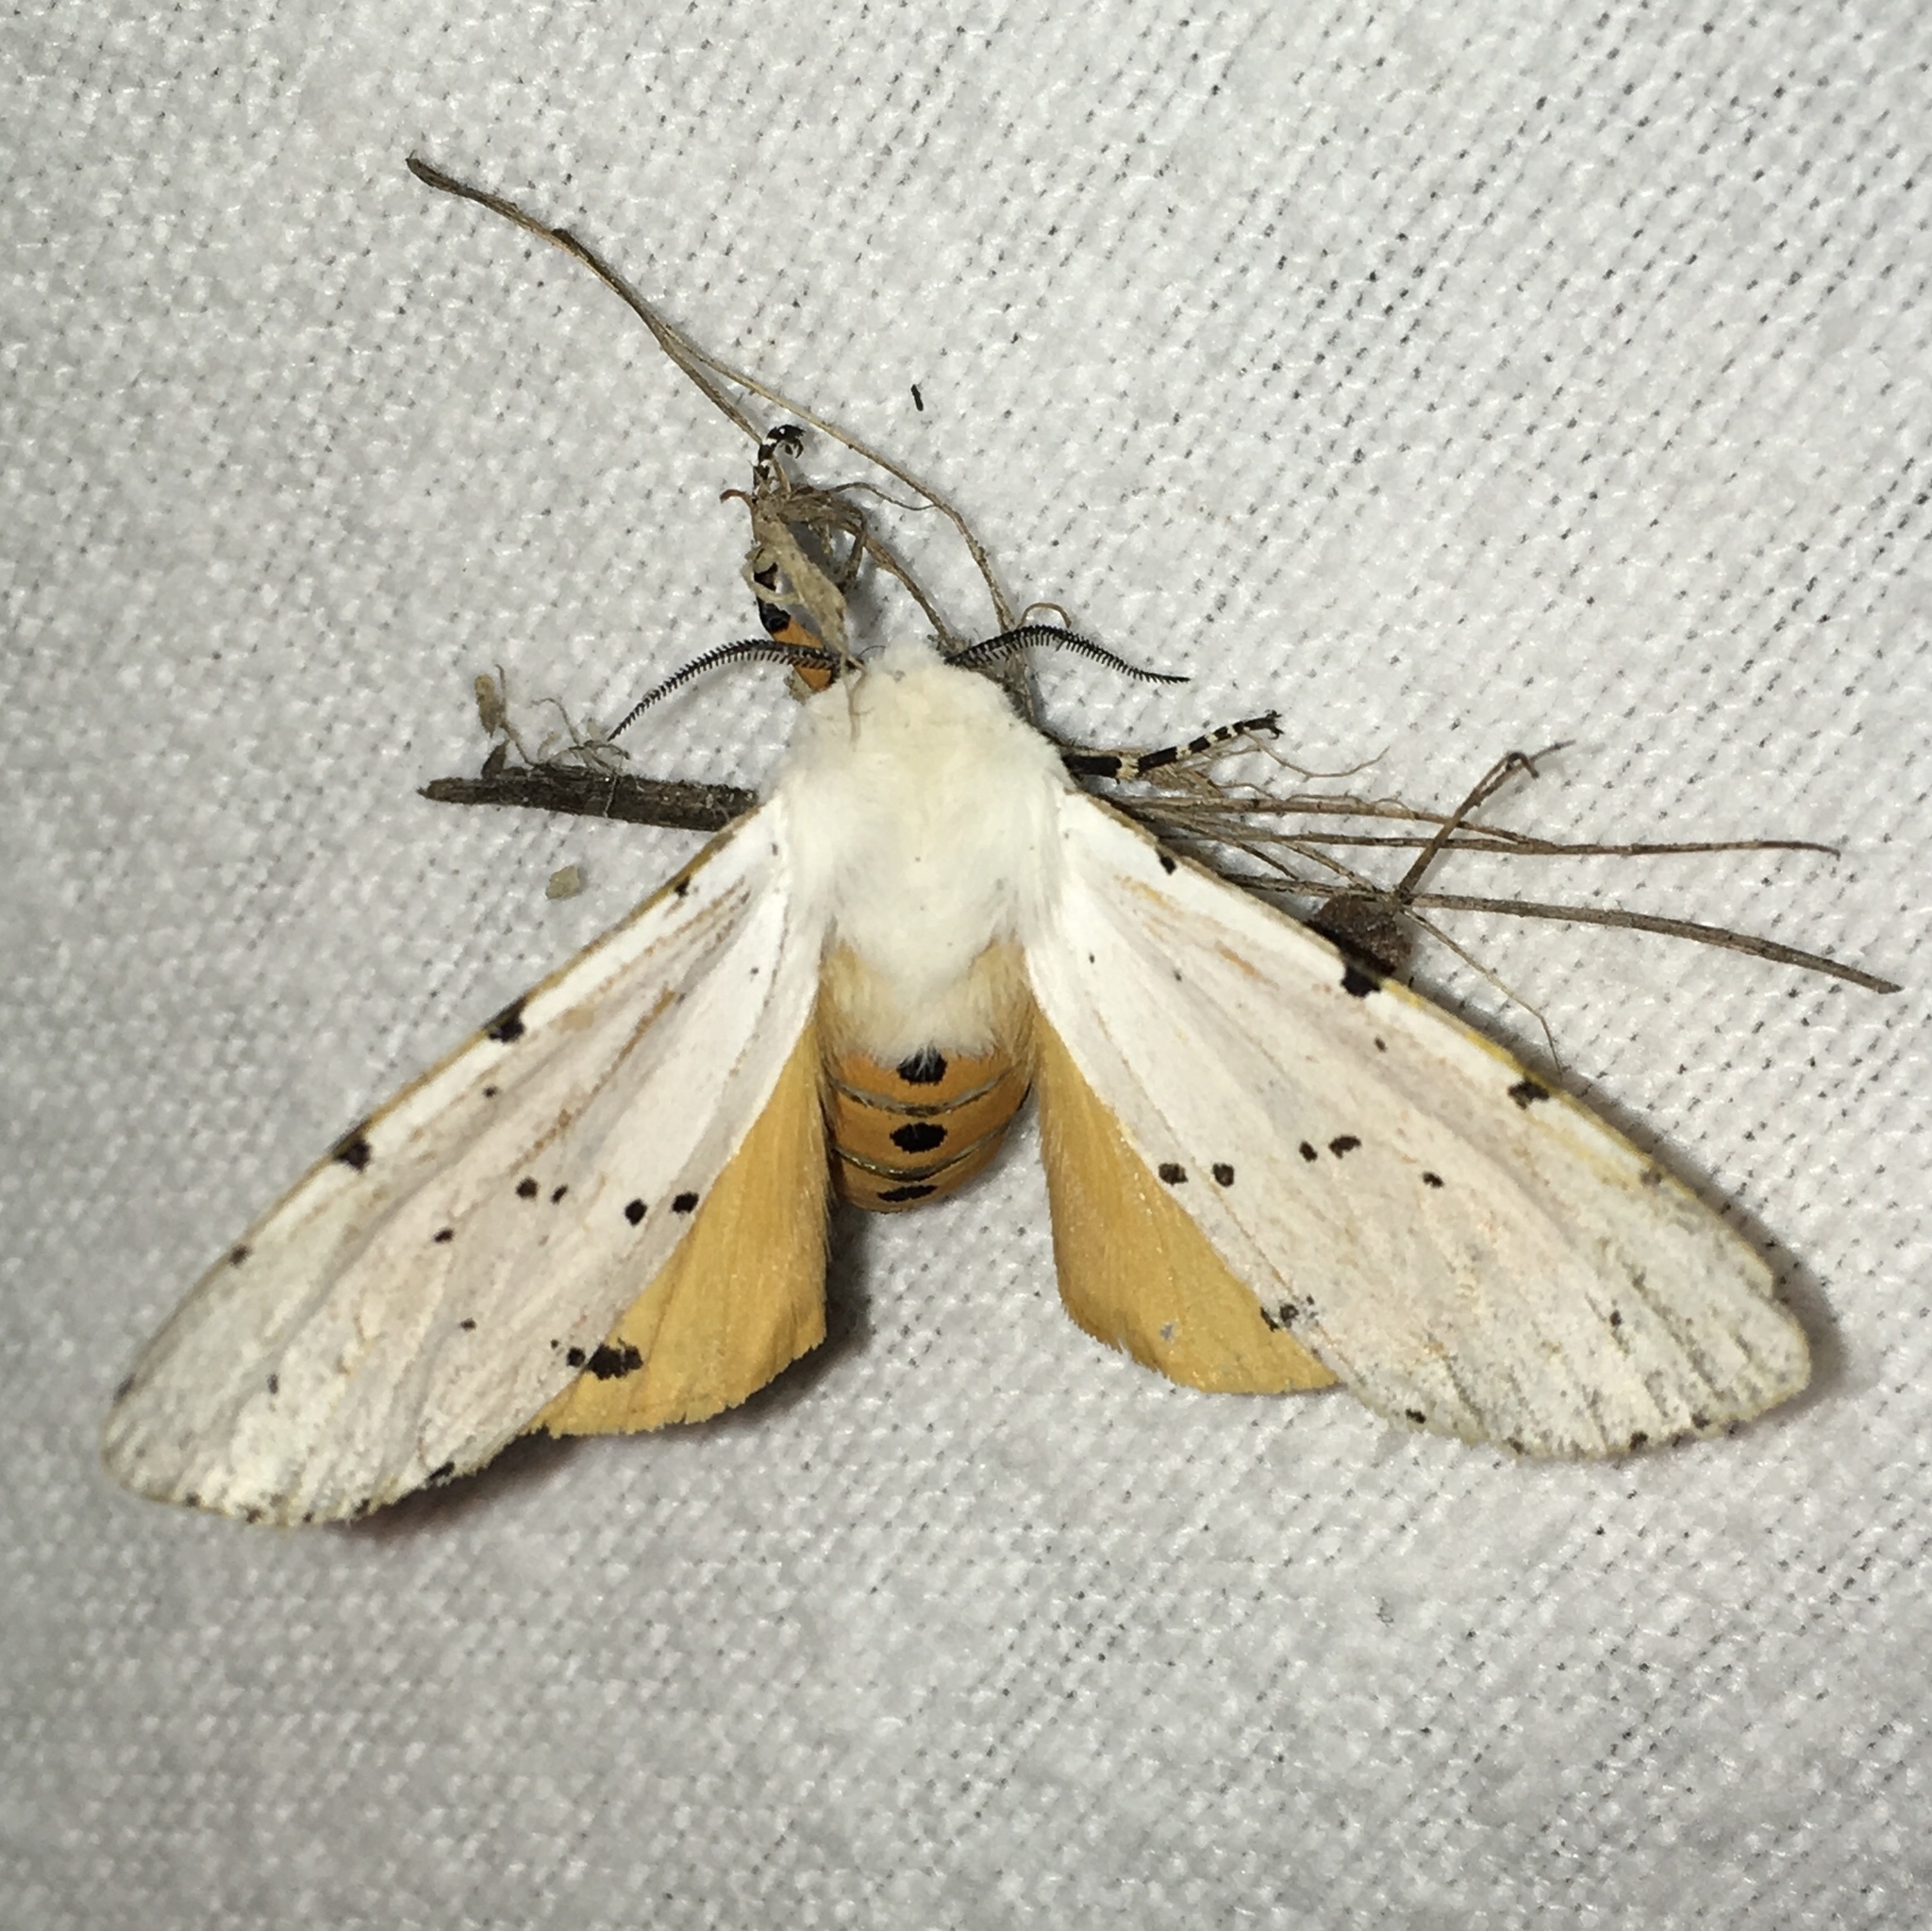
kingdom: Animalia
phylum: Arthropoda
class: Insecta
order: Lepidoptera
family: Erebidae
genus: Estigmene
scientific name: Estigmene acrea
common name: Salt marsh moth
